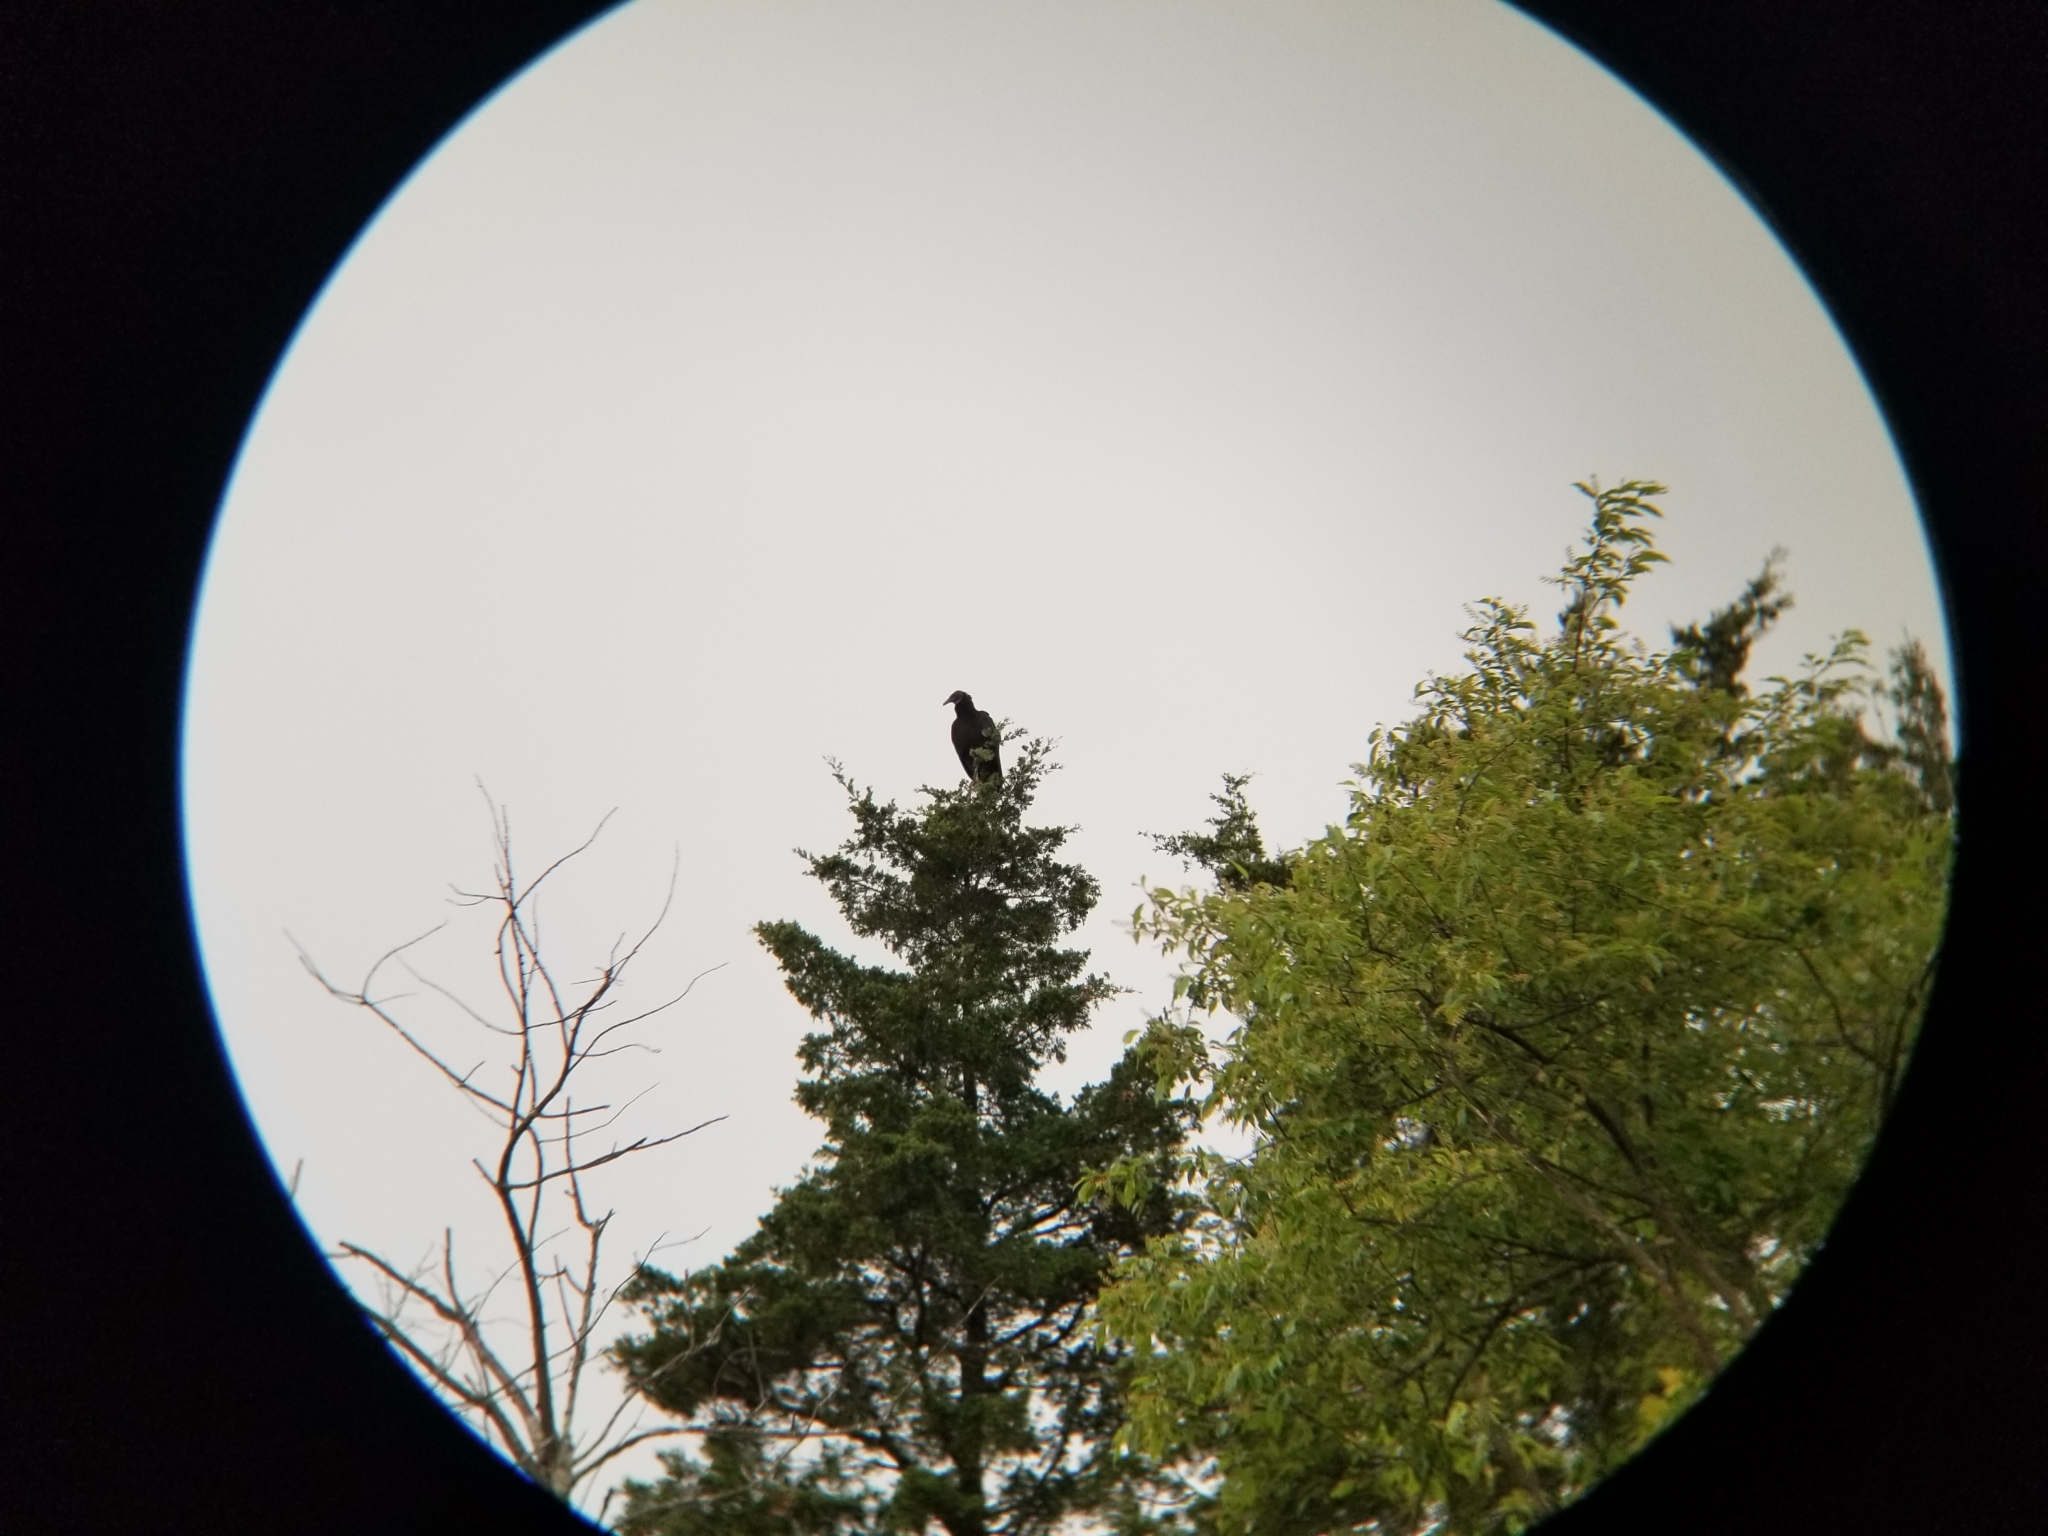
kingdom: Animalia
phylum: Chordata
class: Aves
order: Accipitriformes
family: Cathartidae
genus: Coragyps
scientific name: Coragyps atratus
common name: Black vulture
